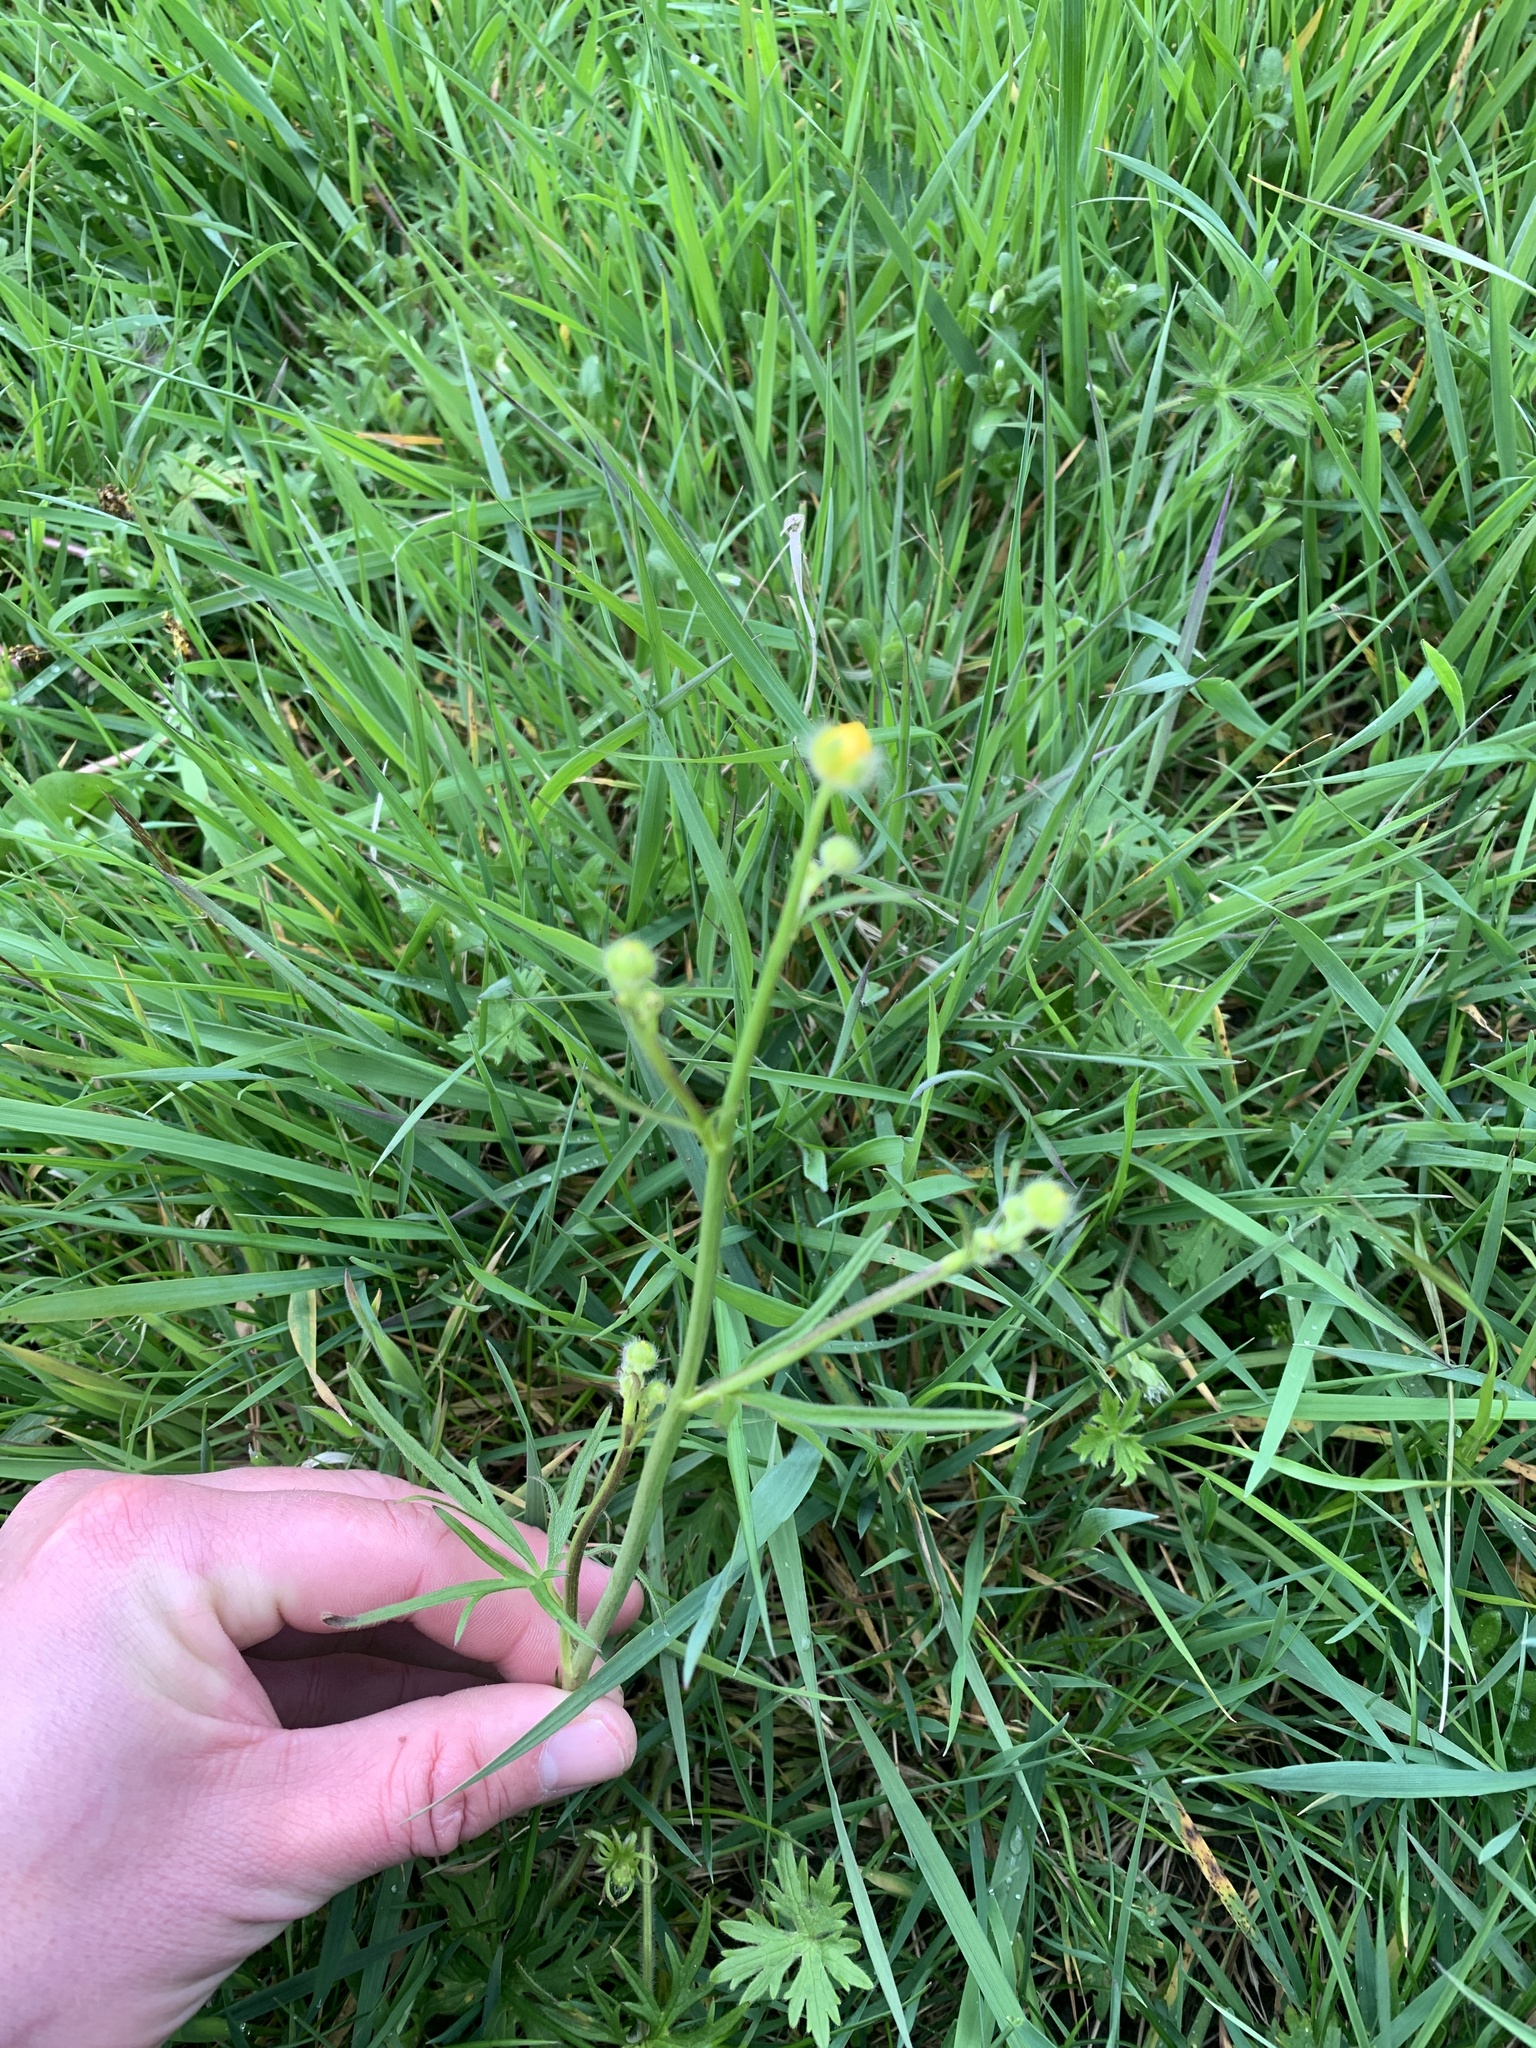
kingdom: Plantae
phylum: Tracheophyta
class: Magnoliopsida
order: Ranunculales
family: Ranunculaceae
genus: Ranunculus
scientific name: Ranunculus acris
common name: Meadow buttercup
